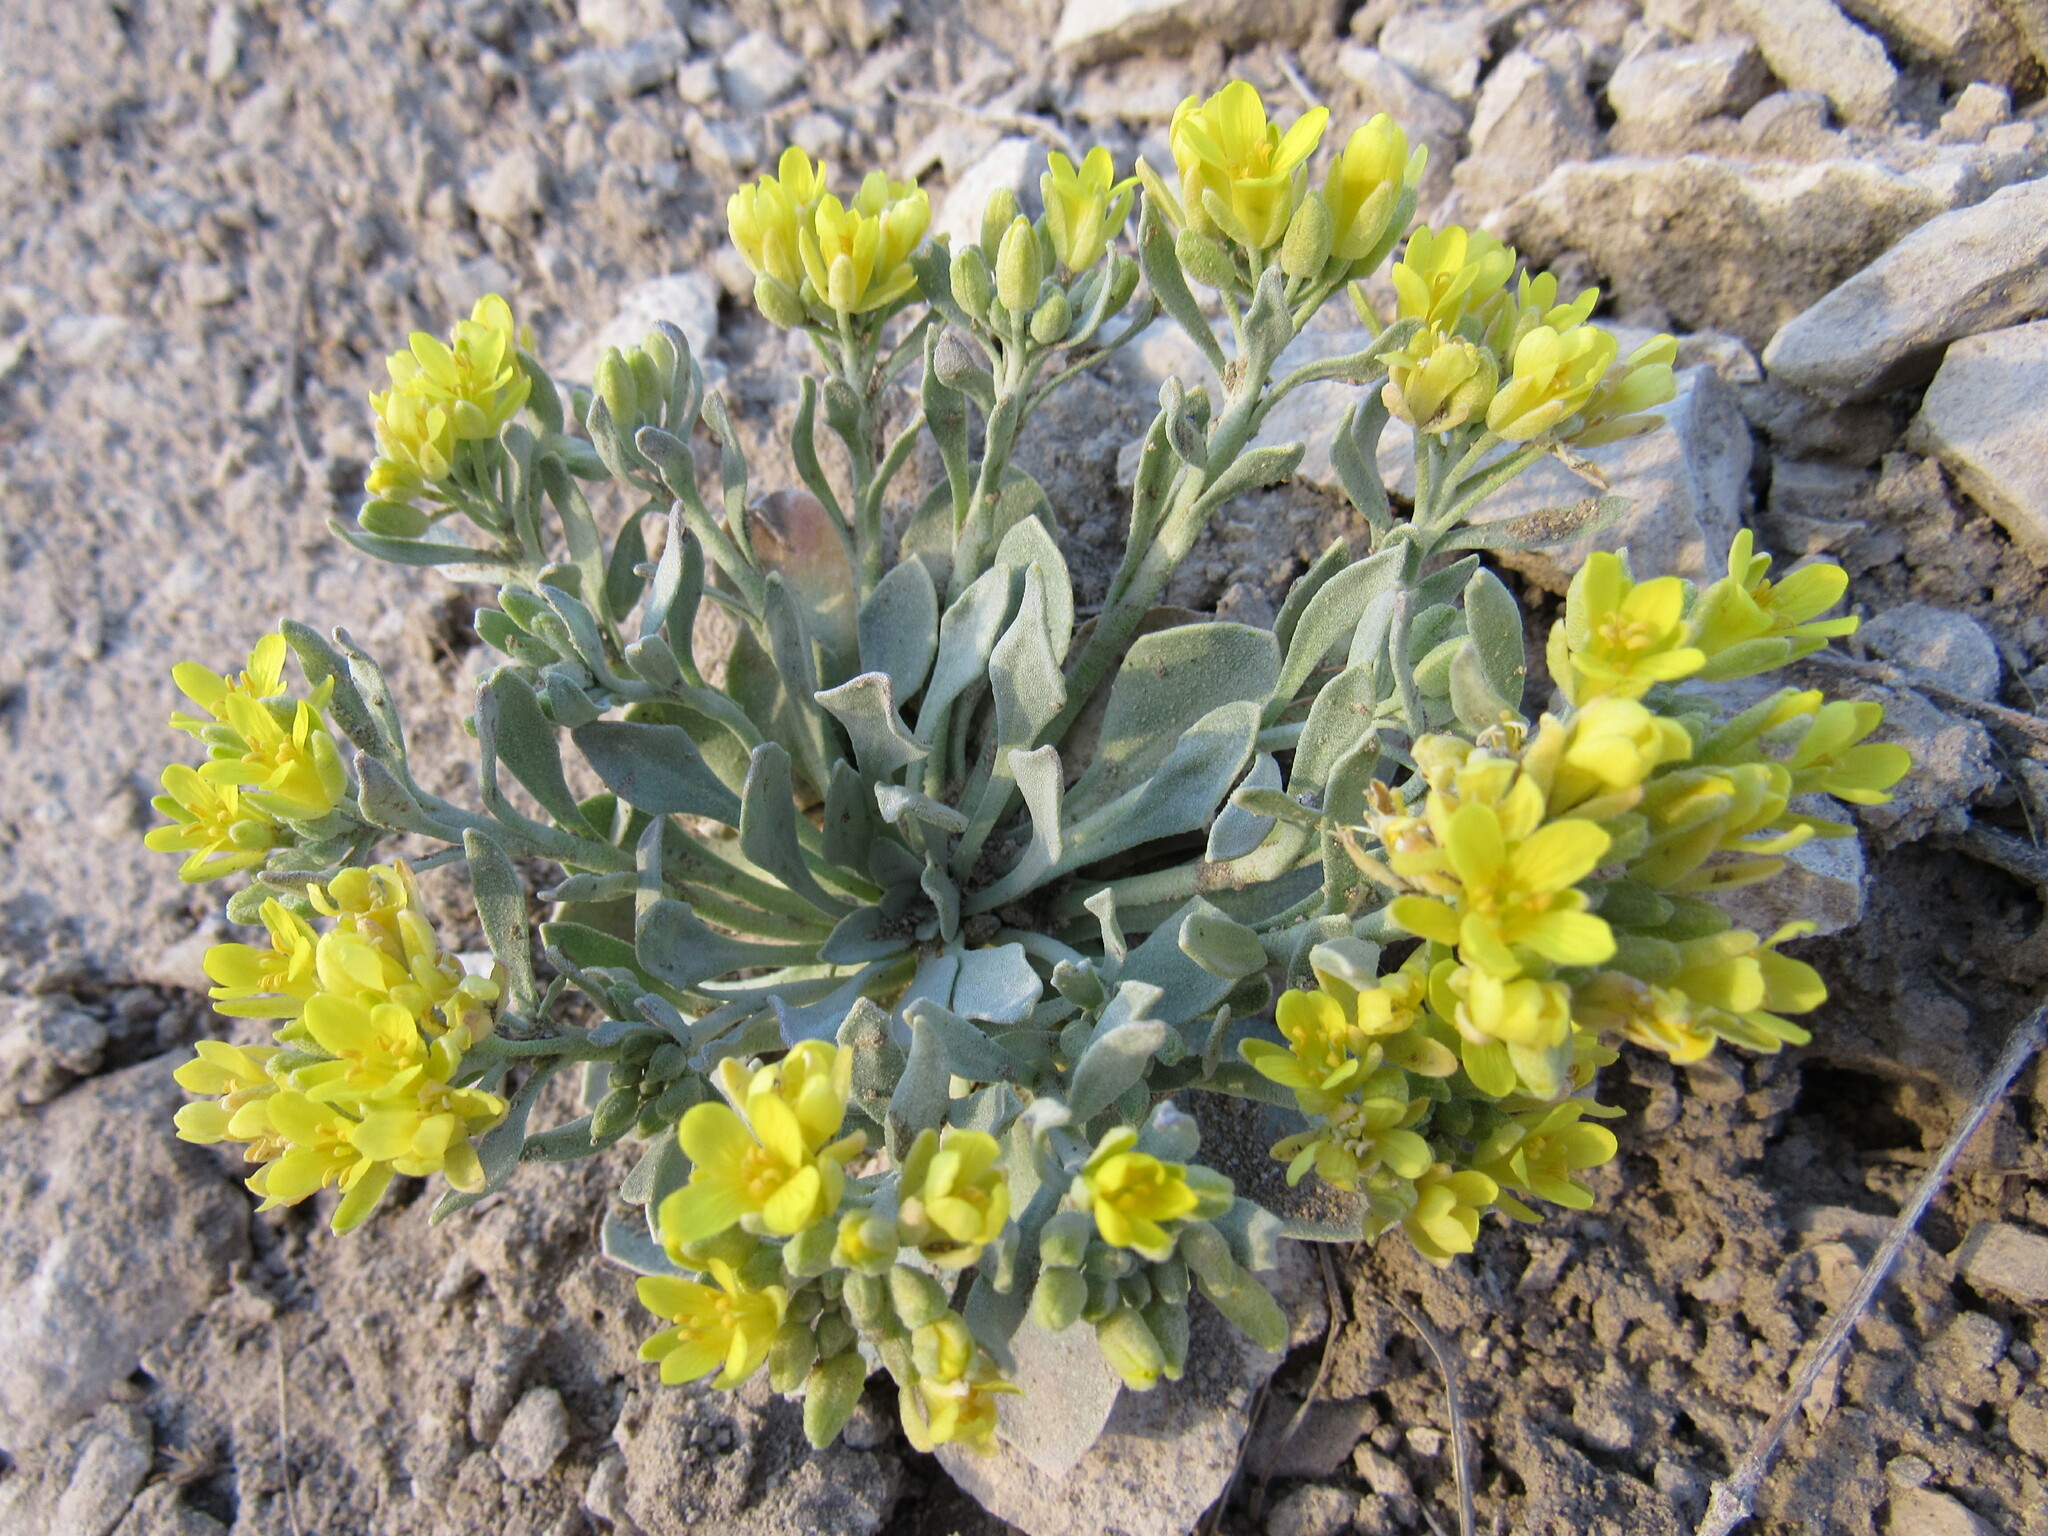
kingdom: Plantae
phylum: Tracheophyta
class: Magnoliopsida
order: Brassicales
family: Brassicaceae
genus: Physaria
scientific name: Physaria bellii
